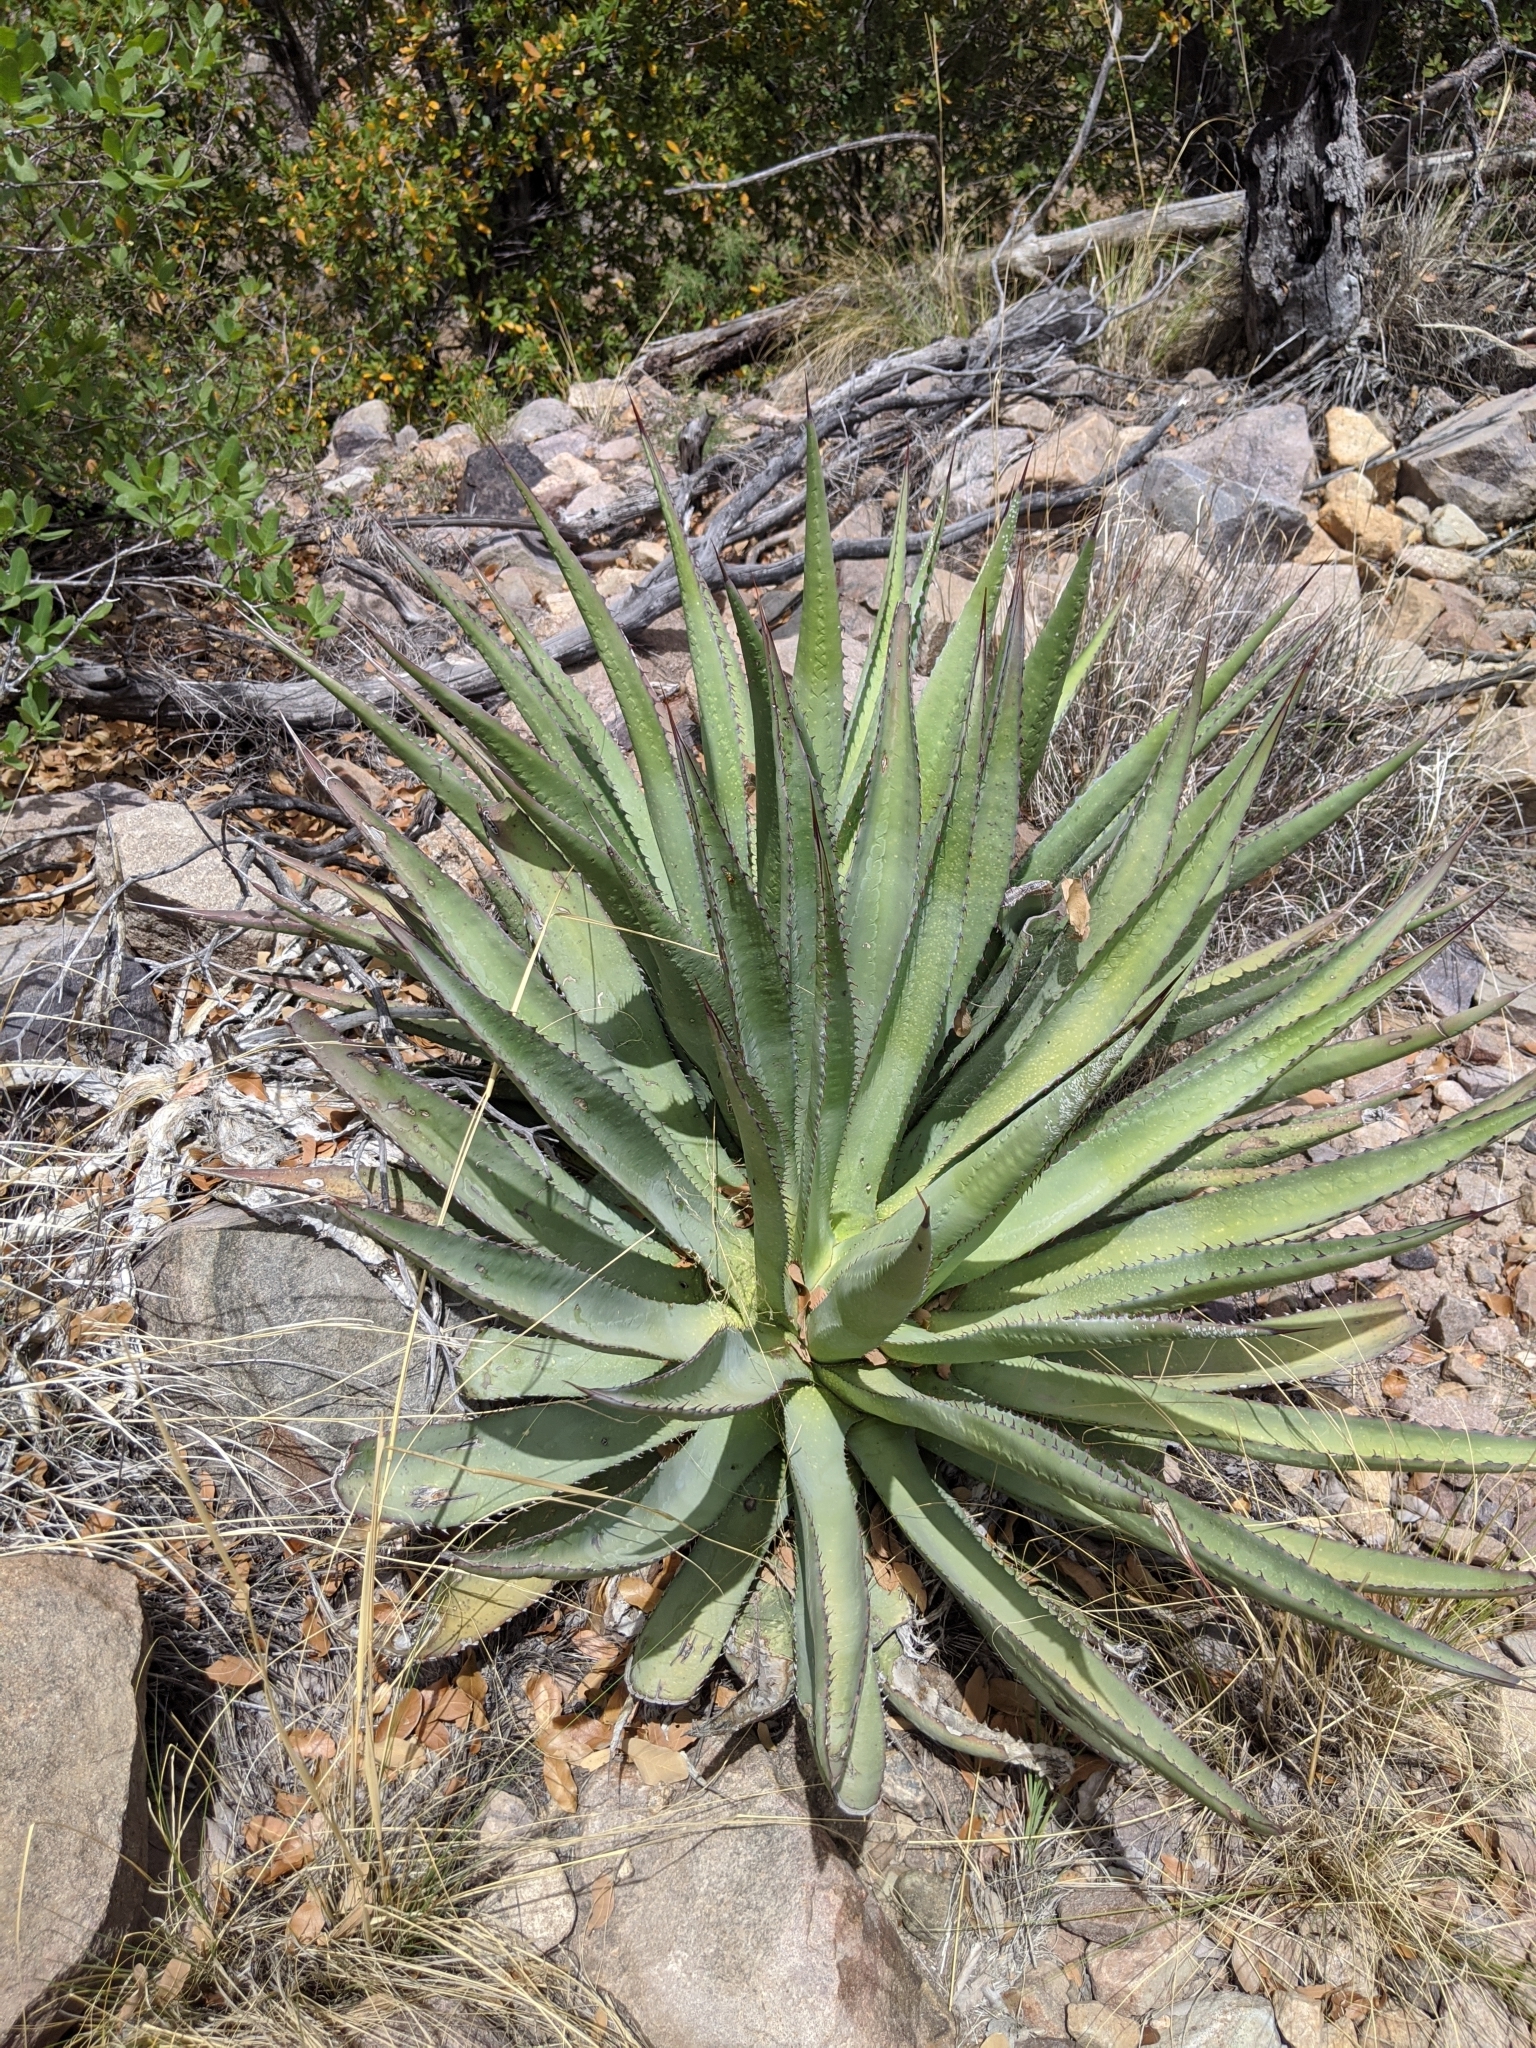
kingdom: Plantae
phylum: Tracheophyta
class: Liliopsida
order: Asparagales
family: Asparagaceae
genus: Agave
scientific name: Agave palmeri
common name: Palmer agave
